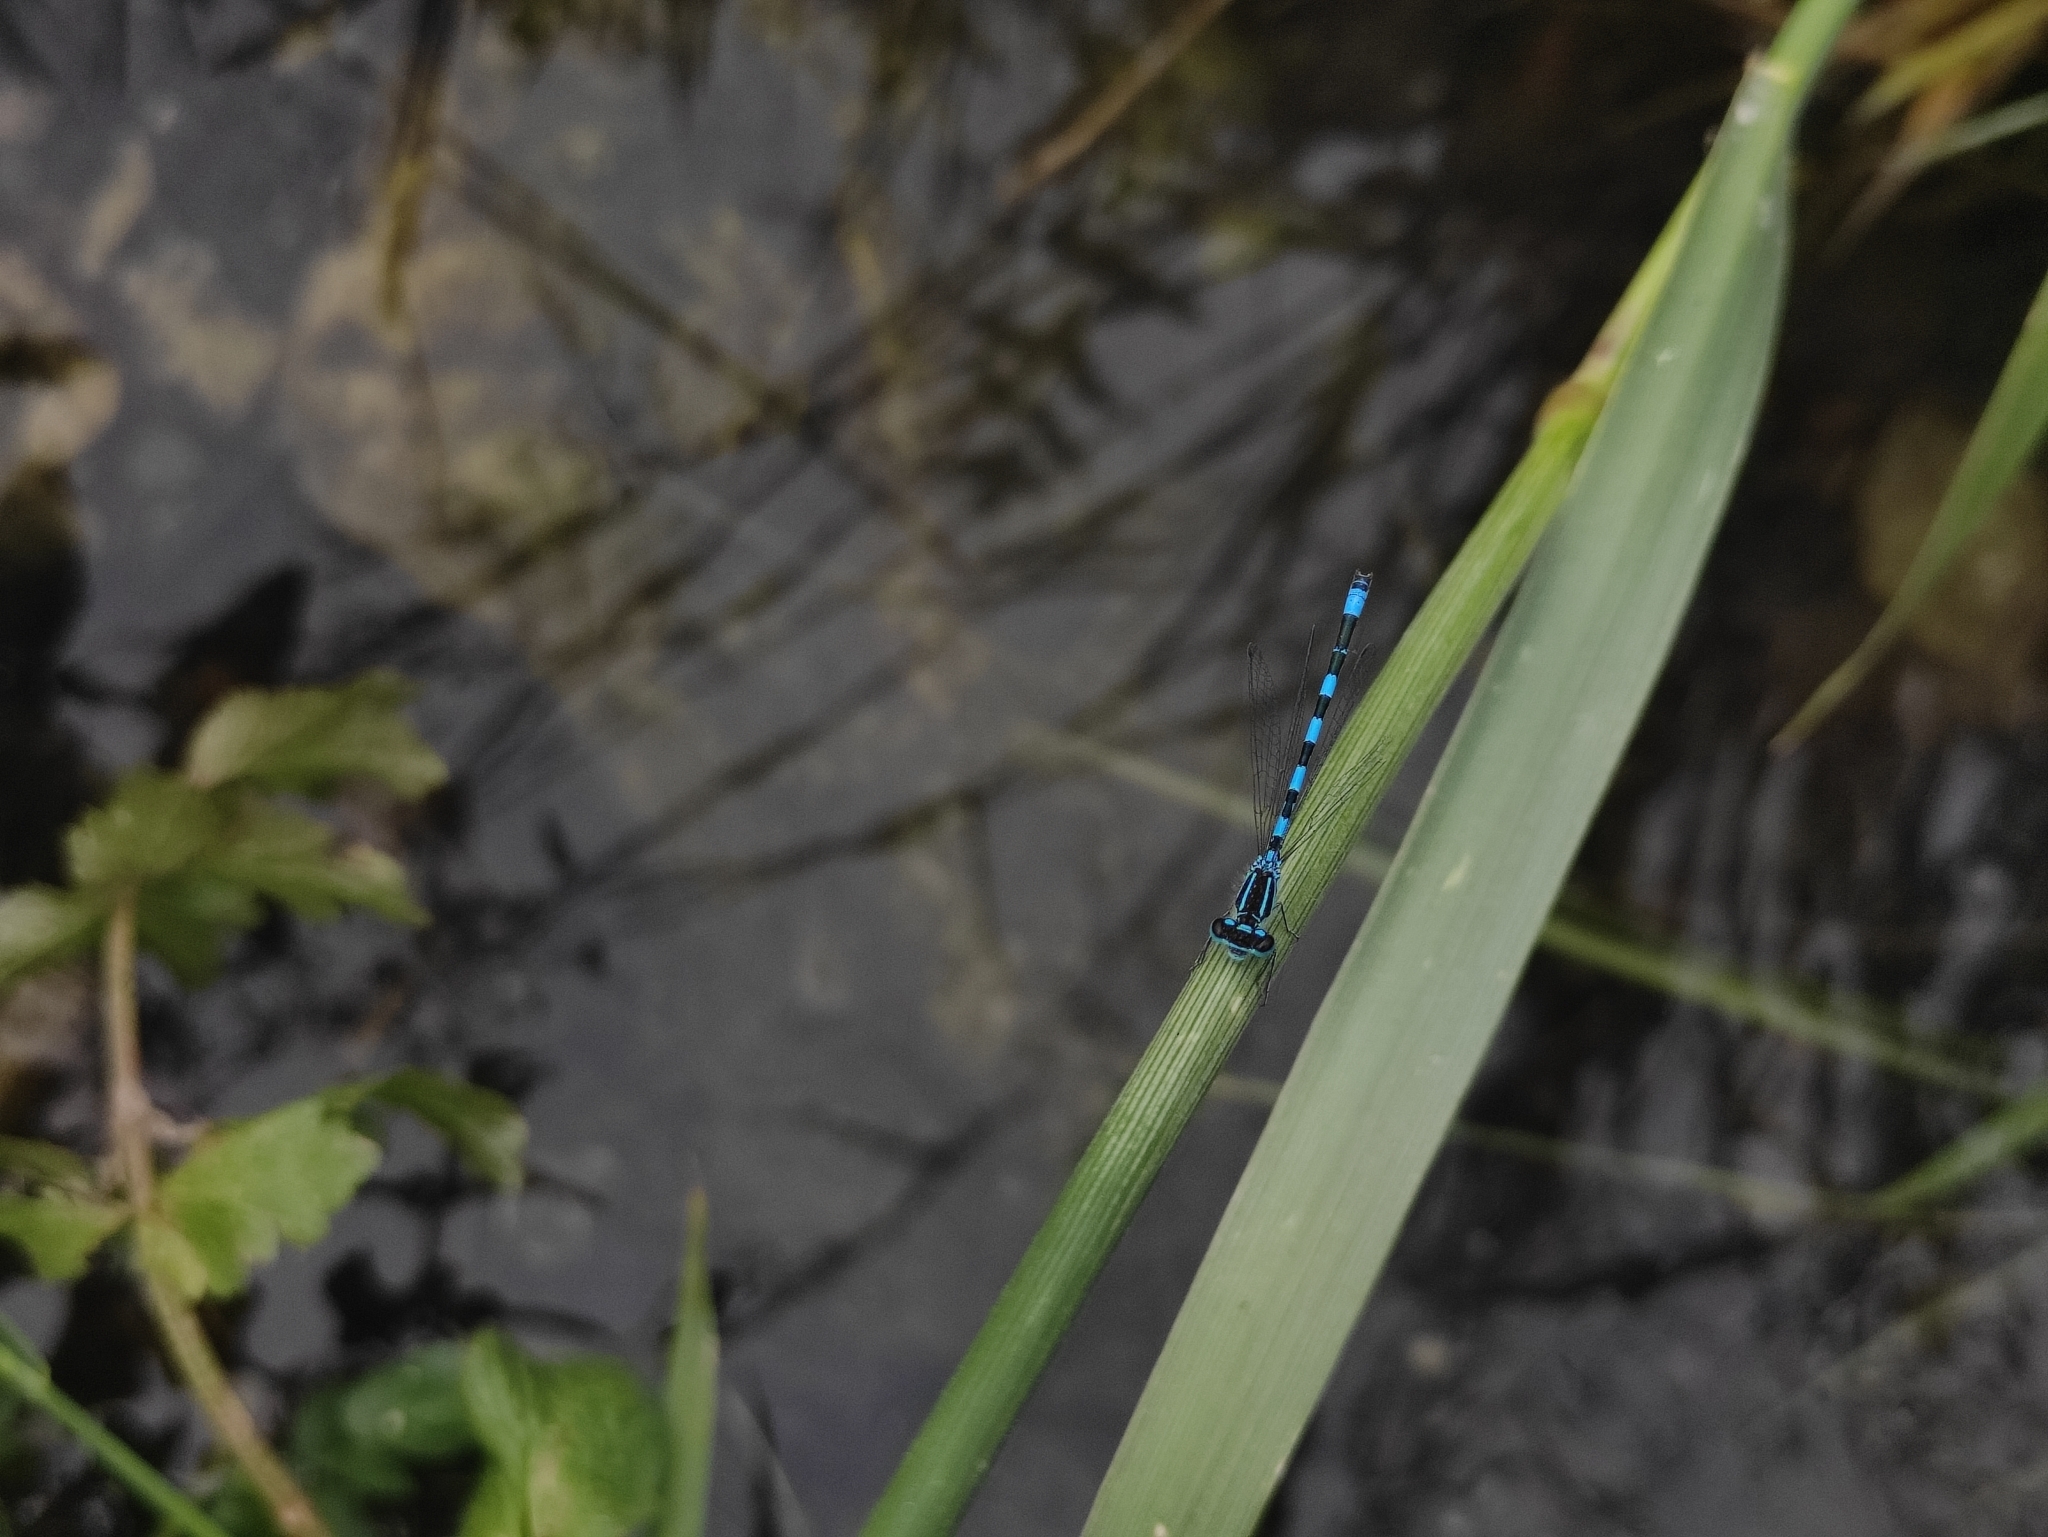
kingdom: Animalia
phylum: Arthropoda
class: Insecta
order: Odonata
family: Coenagrionidae
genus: Coenagrion
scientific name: Coenagrion mercuriale
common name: Southern damselfly
